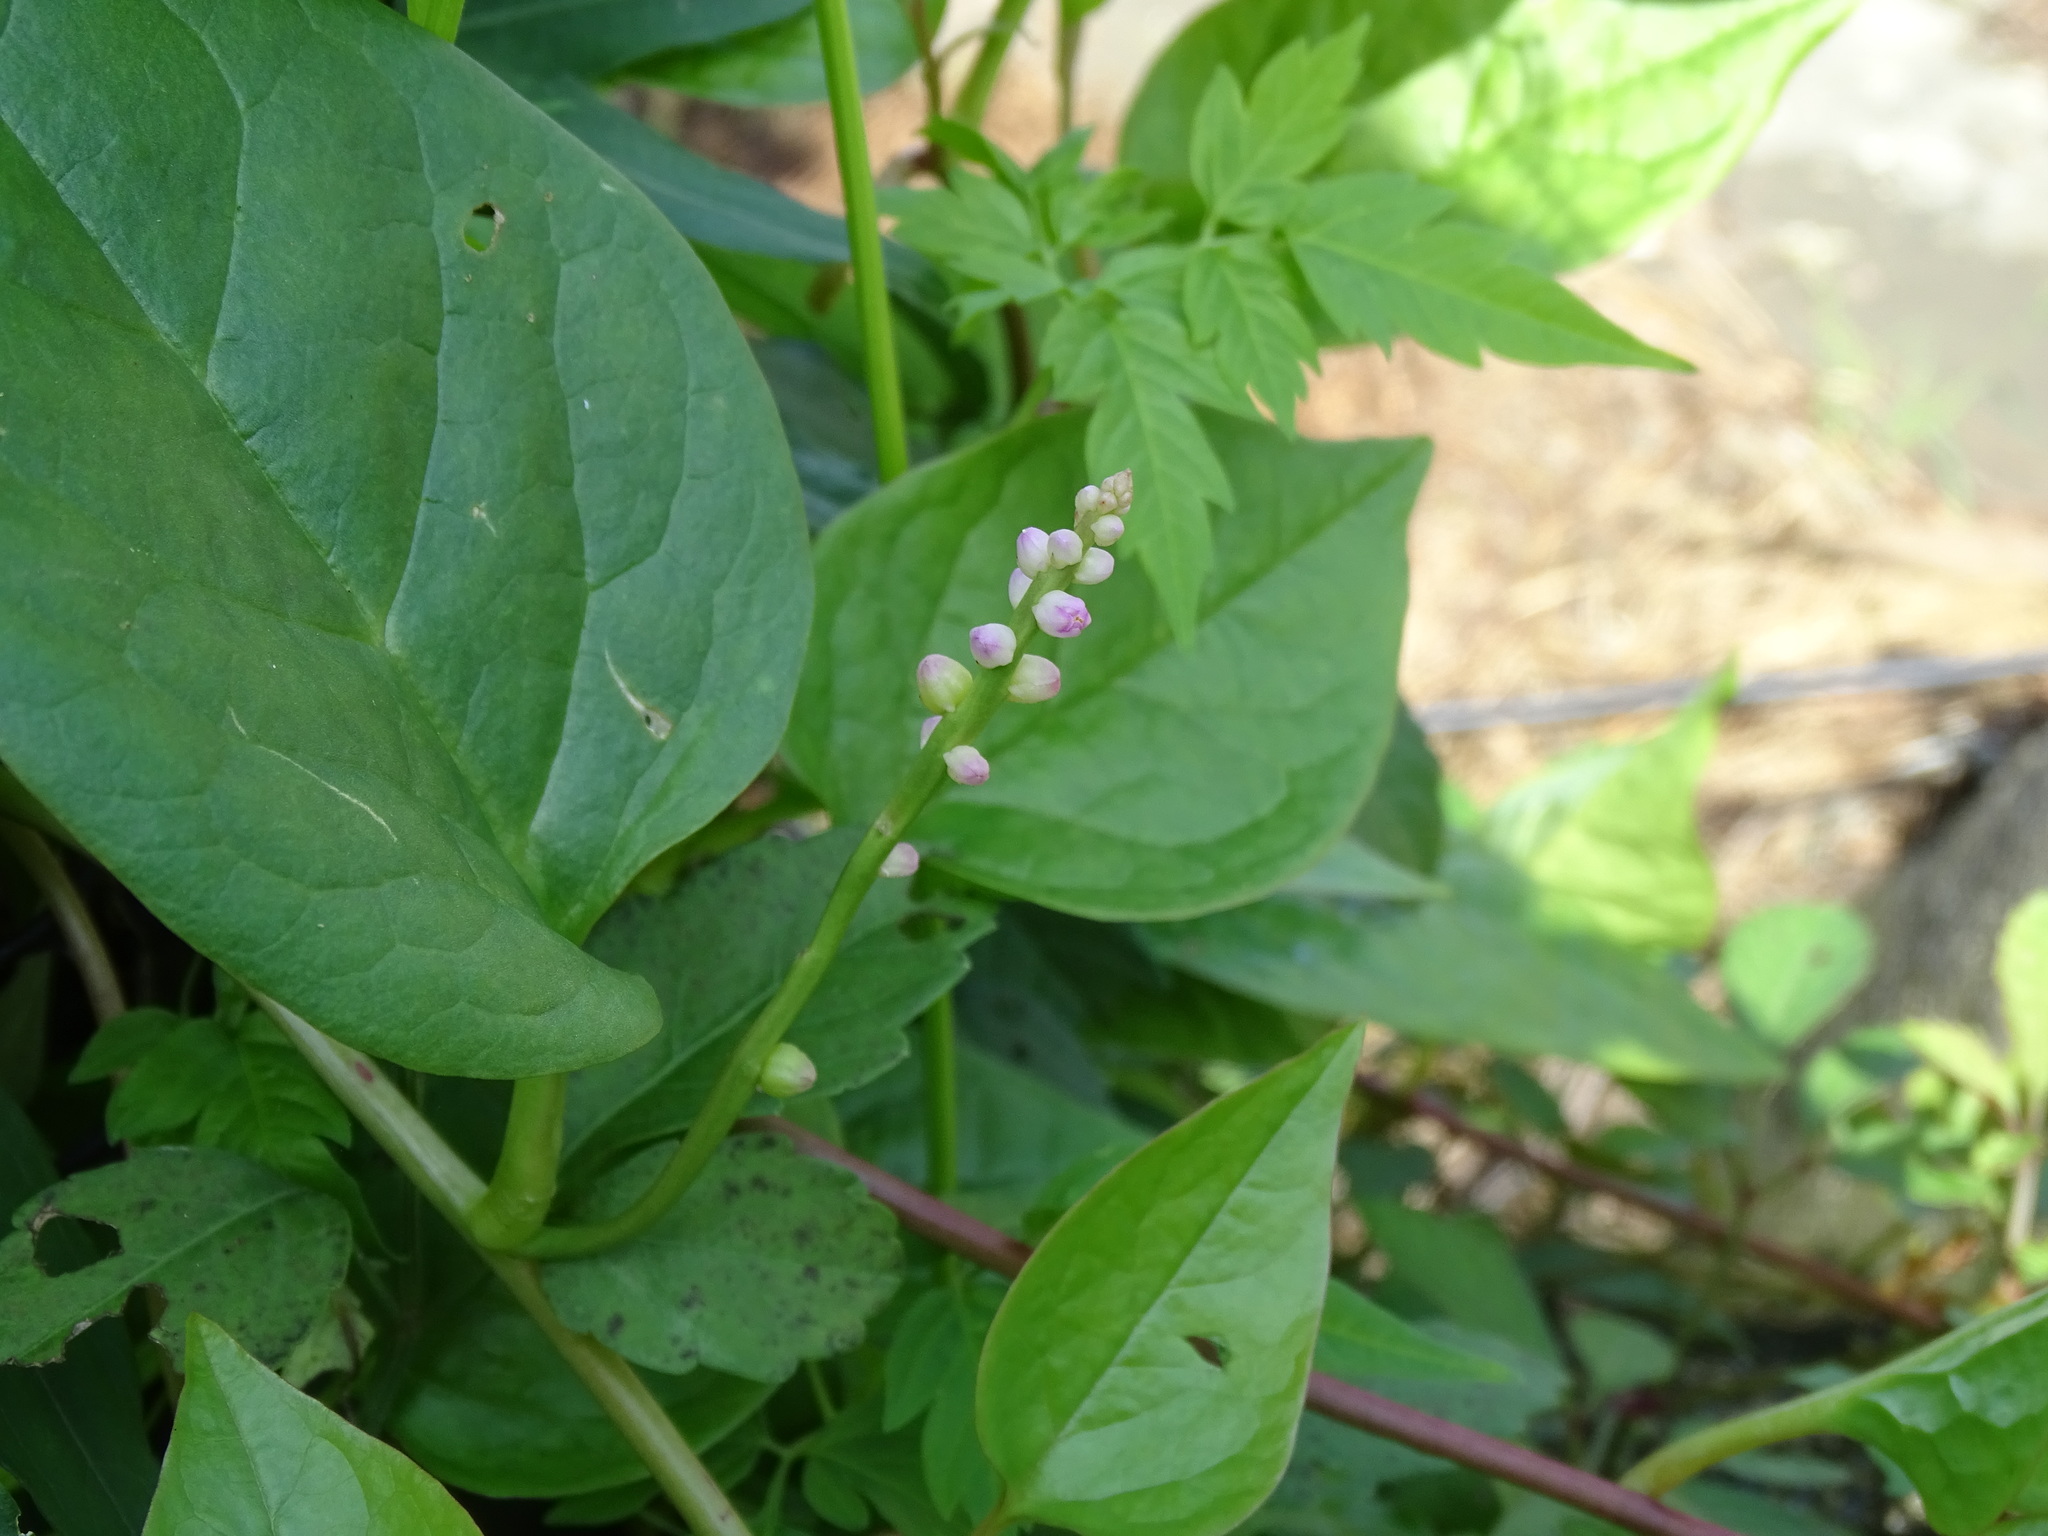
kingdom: Plantae
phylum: Tracheophyta
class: Magnoliopsida
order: Caryophyllales
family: Basellaceae
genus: Basella
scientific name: Basella alba
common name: Indian spinach
